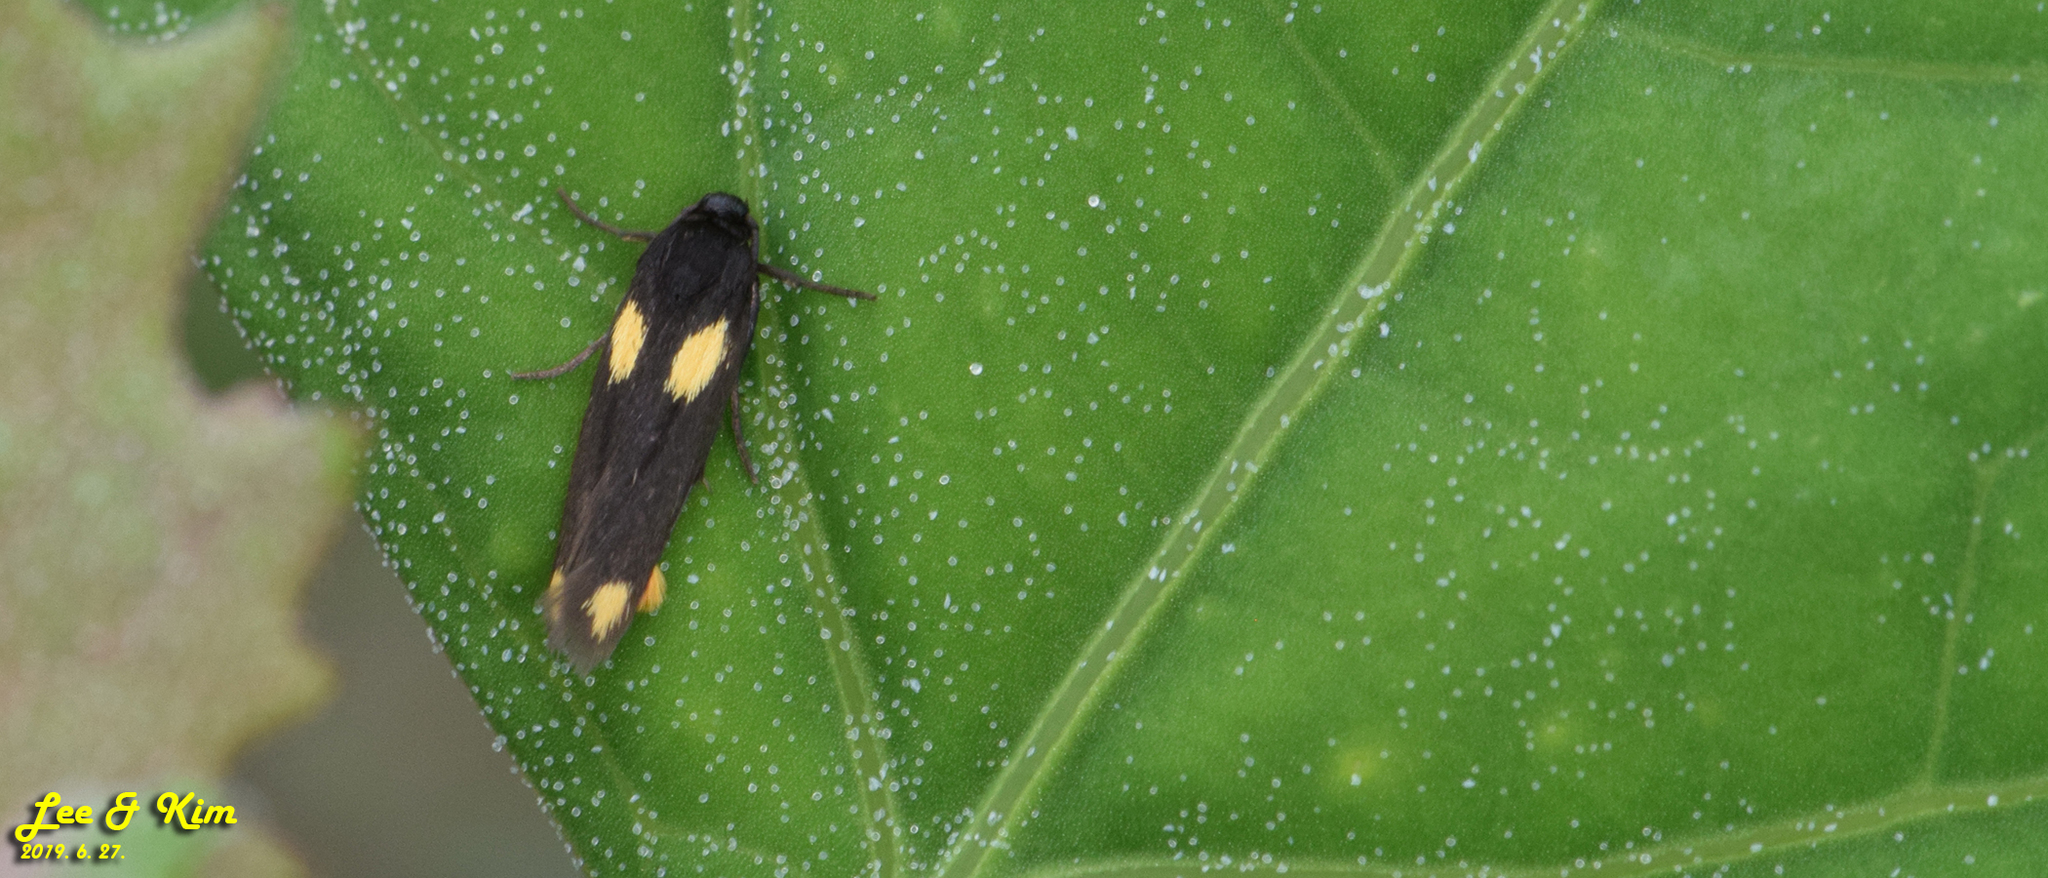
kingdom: Animalia
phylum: Arthropoda
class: Insecta
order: Lepidoptera
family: Scythrididae
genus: Scythris
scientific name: Scythris sinensis
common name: Kentish owlet
